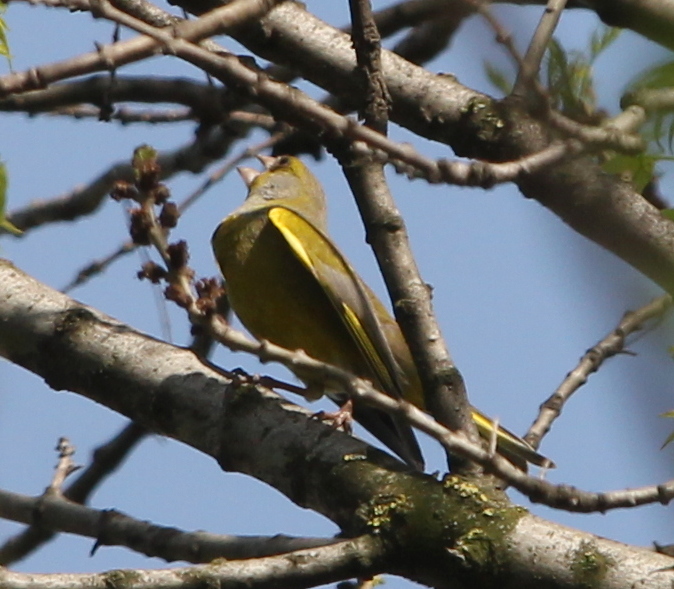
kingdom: Plantae
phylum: Tracheophyta
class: Liliopsida
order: Poales
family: Poaceae
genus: Chloris
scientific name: Chloris chloris
